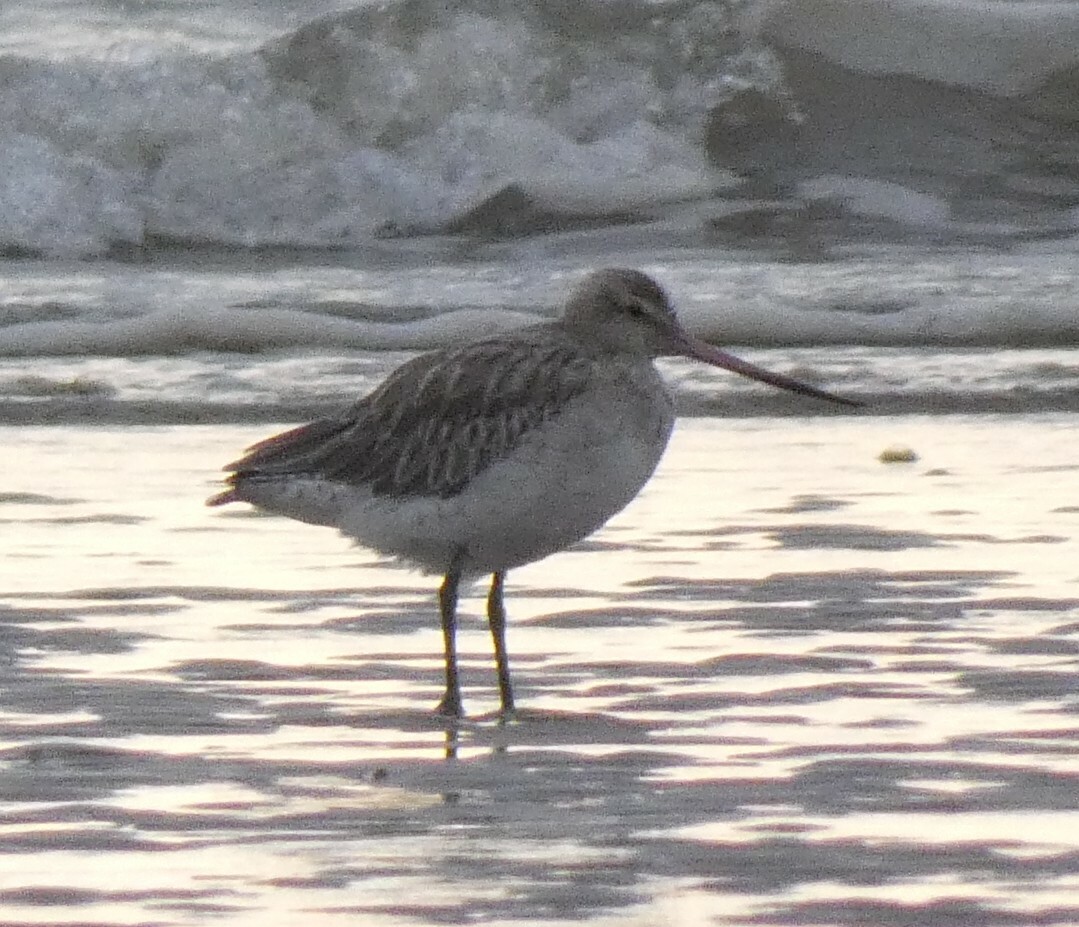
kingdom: Animalia
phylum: Chordata
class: Aves
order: Charadriiformes
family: Scolopacidae
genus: Limosa
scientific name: Limosa lapponica
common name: Bar-tailed godwit
